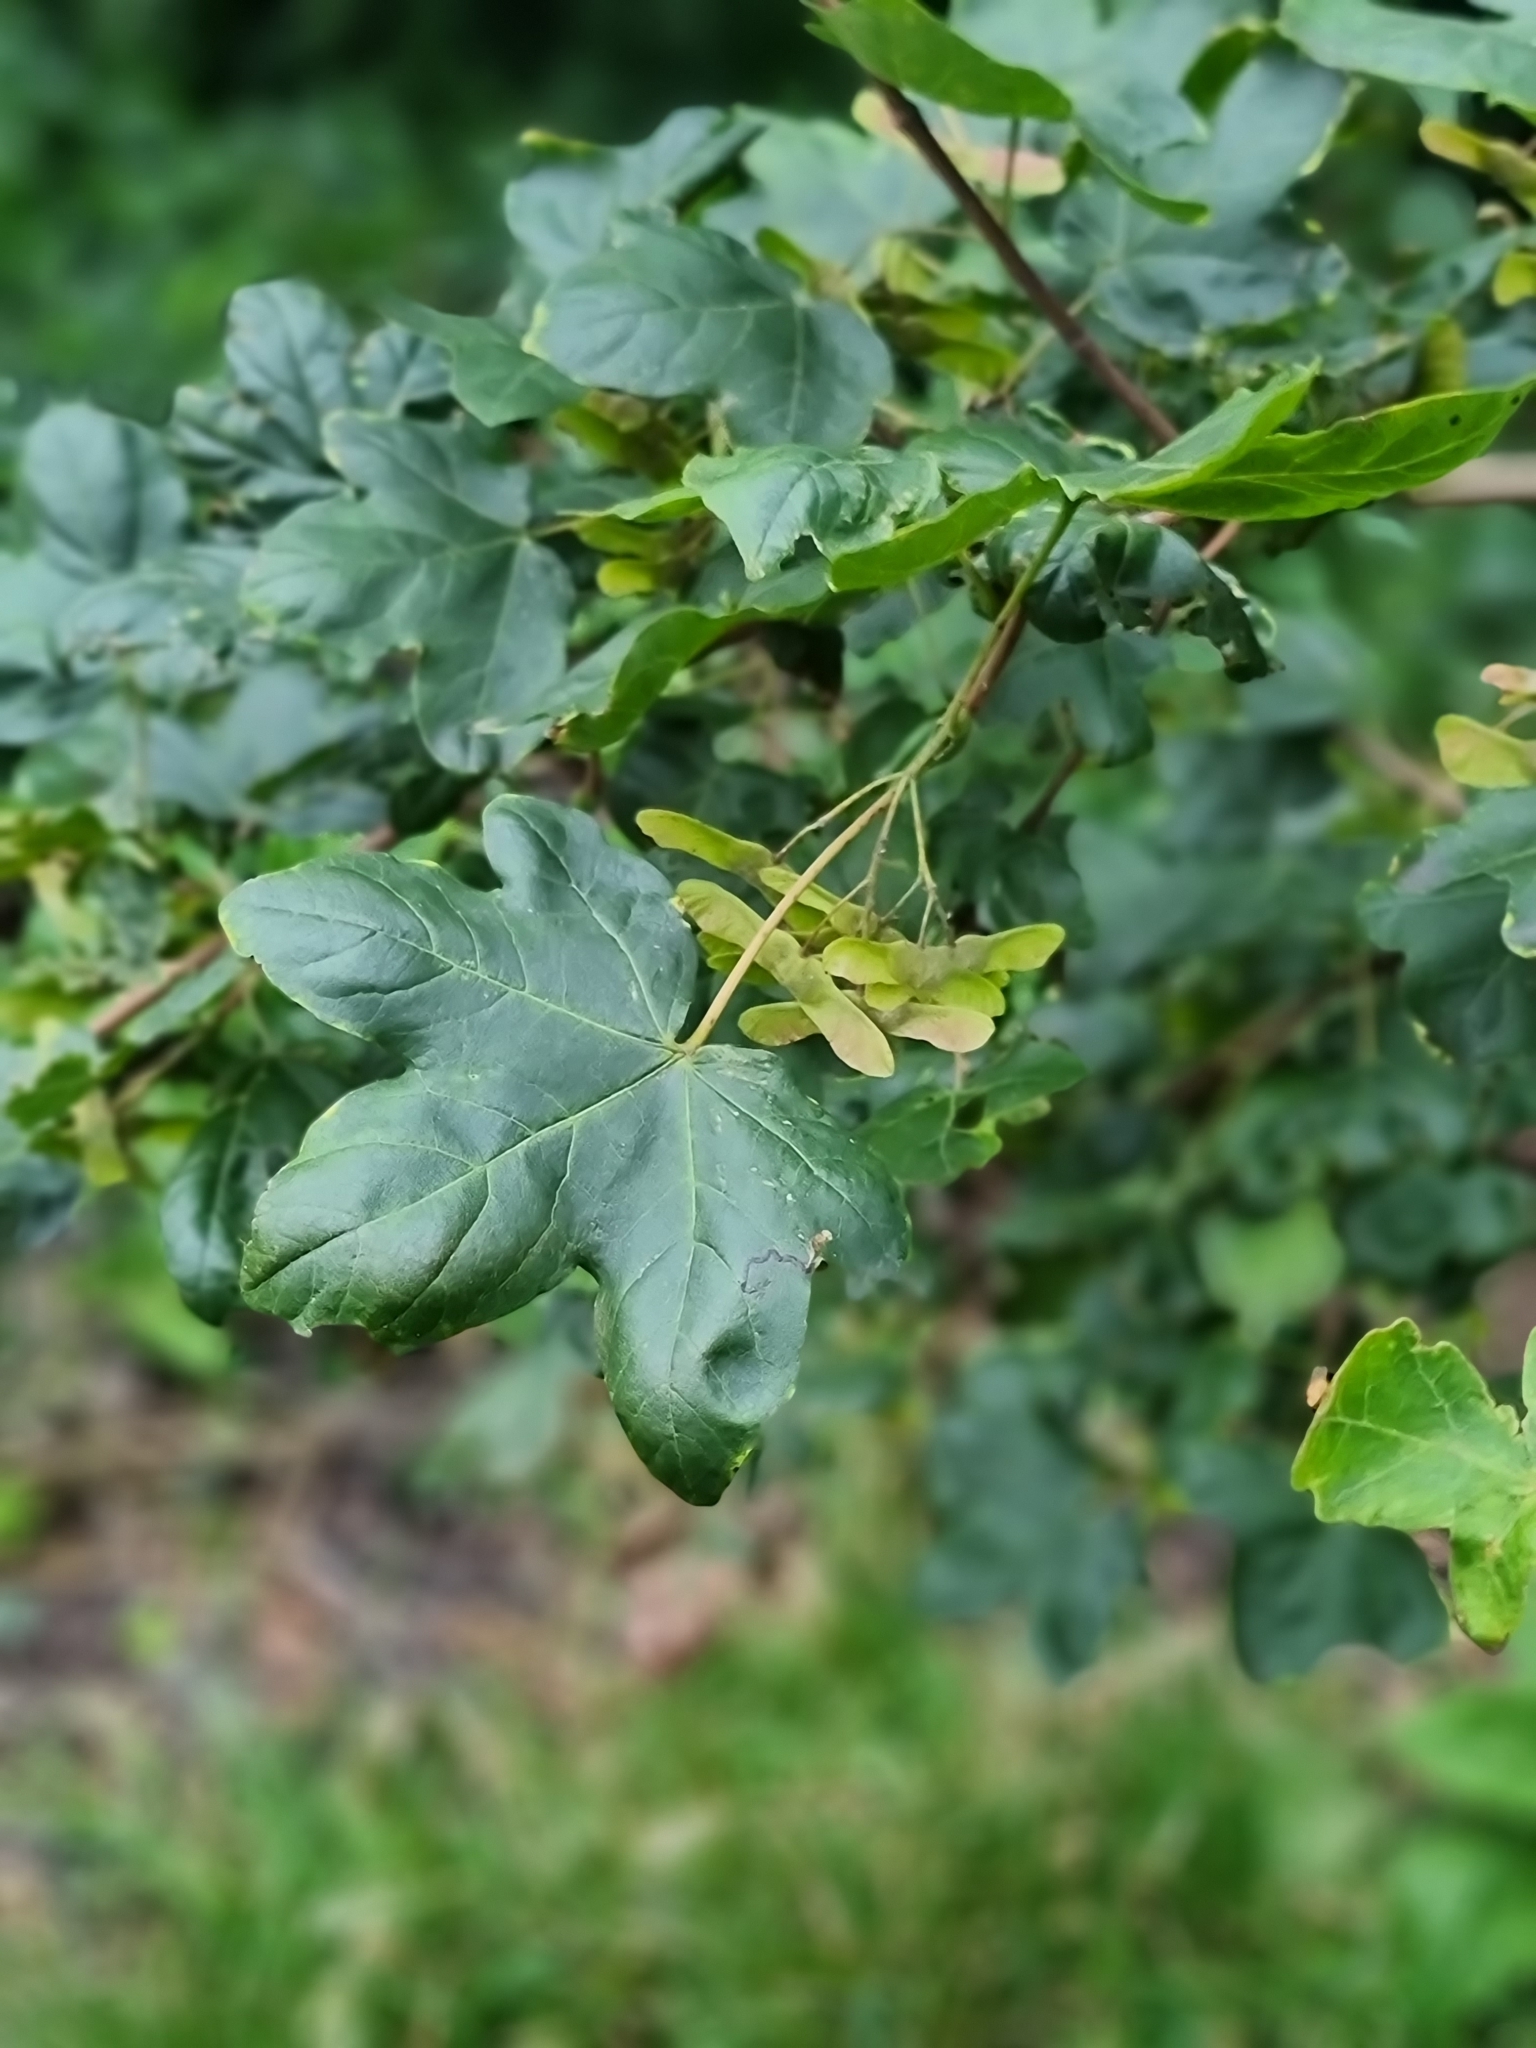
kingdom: Plantae
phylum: Tracheophyta
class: Magnoliopsida
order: Sapindales
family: Sapindaceae
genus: Acer
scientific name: Acer campestre
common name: Field maple
